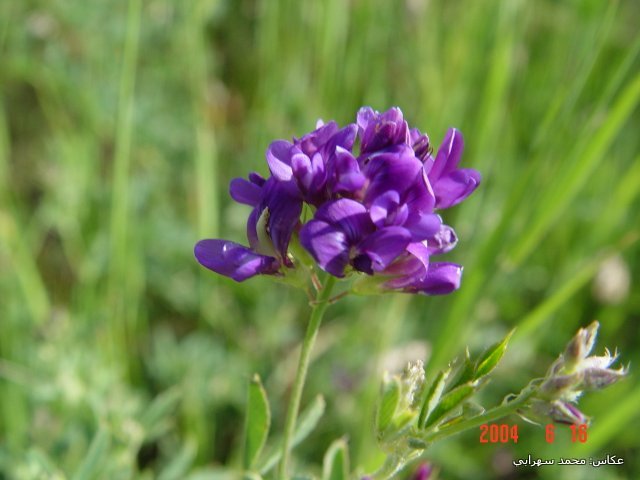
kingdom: Plantae
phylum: Tracheophyta
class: Magnoliopsida
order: Fabales
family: Fabaceae
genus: Medicago
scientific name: Medicago sativa
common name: Alfalfa
